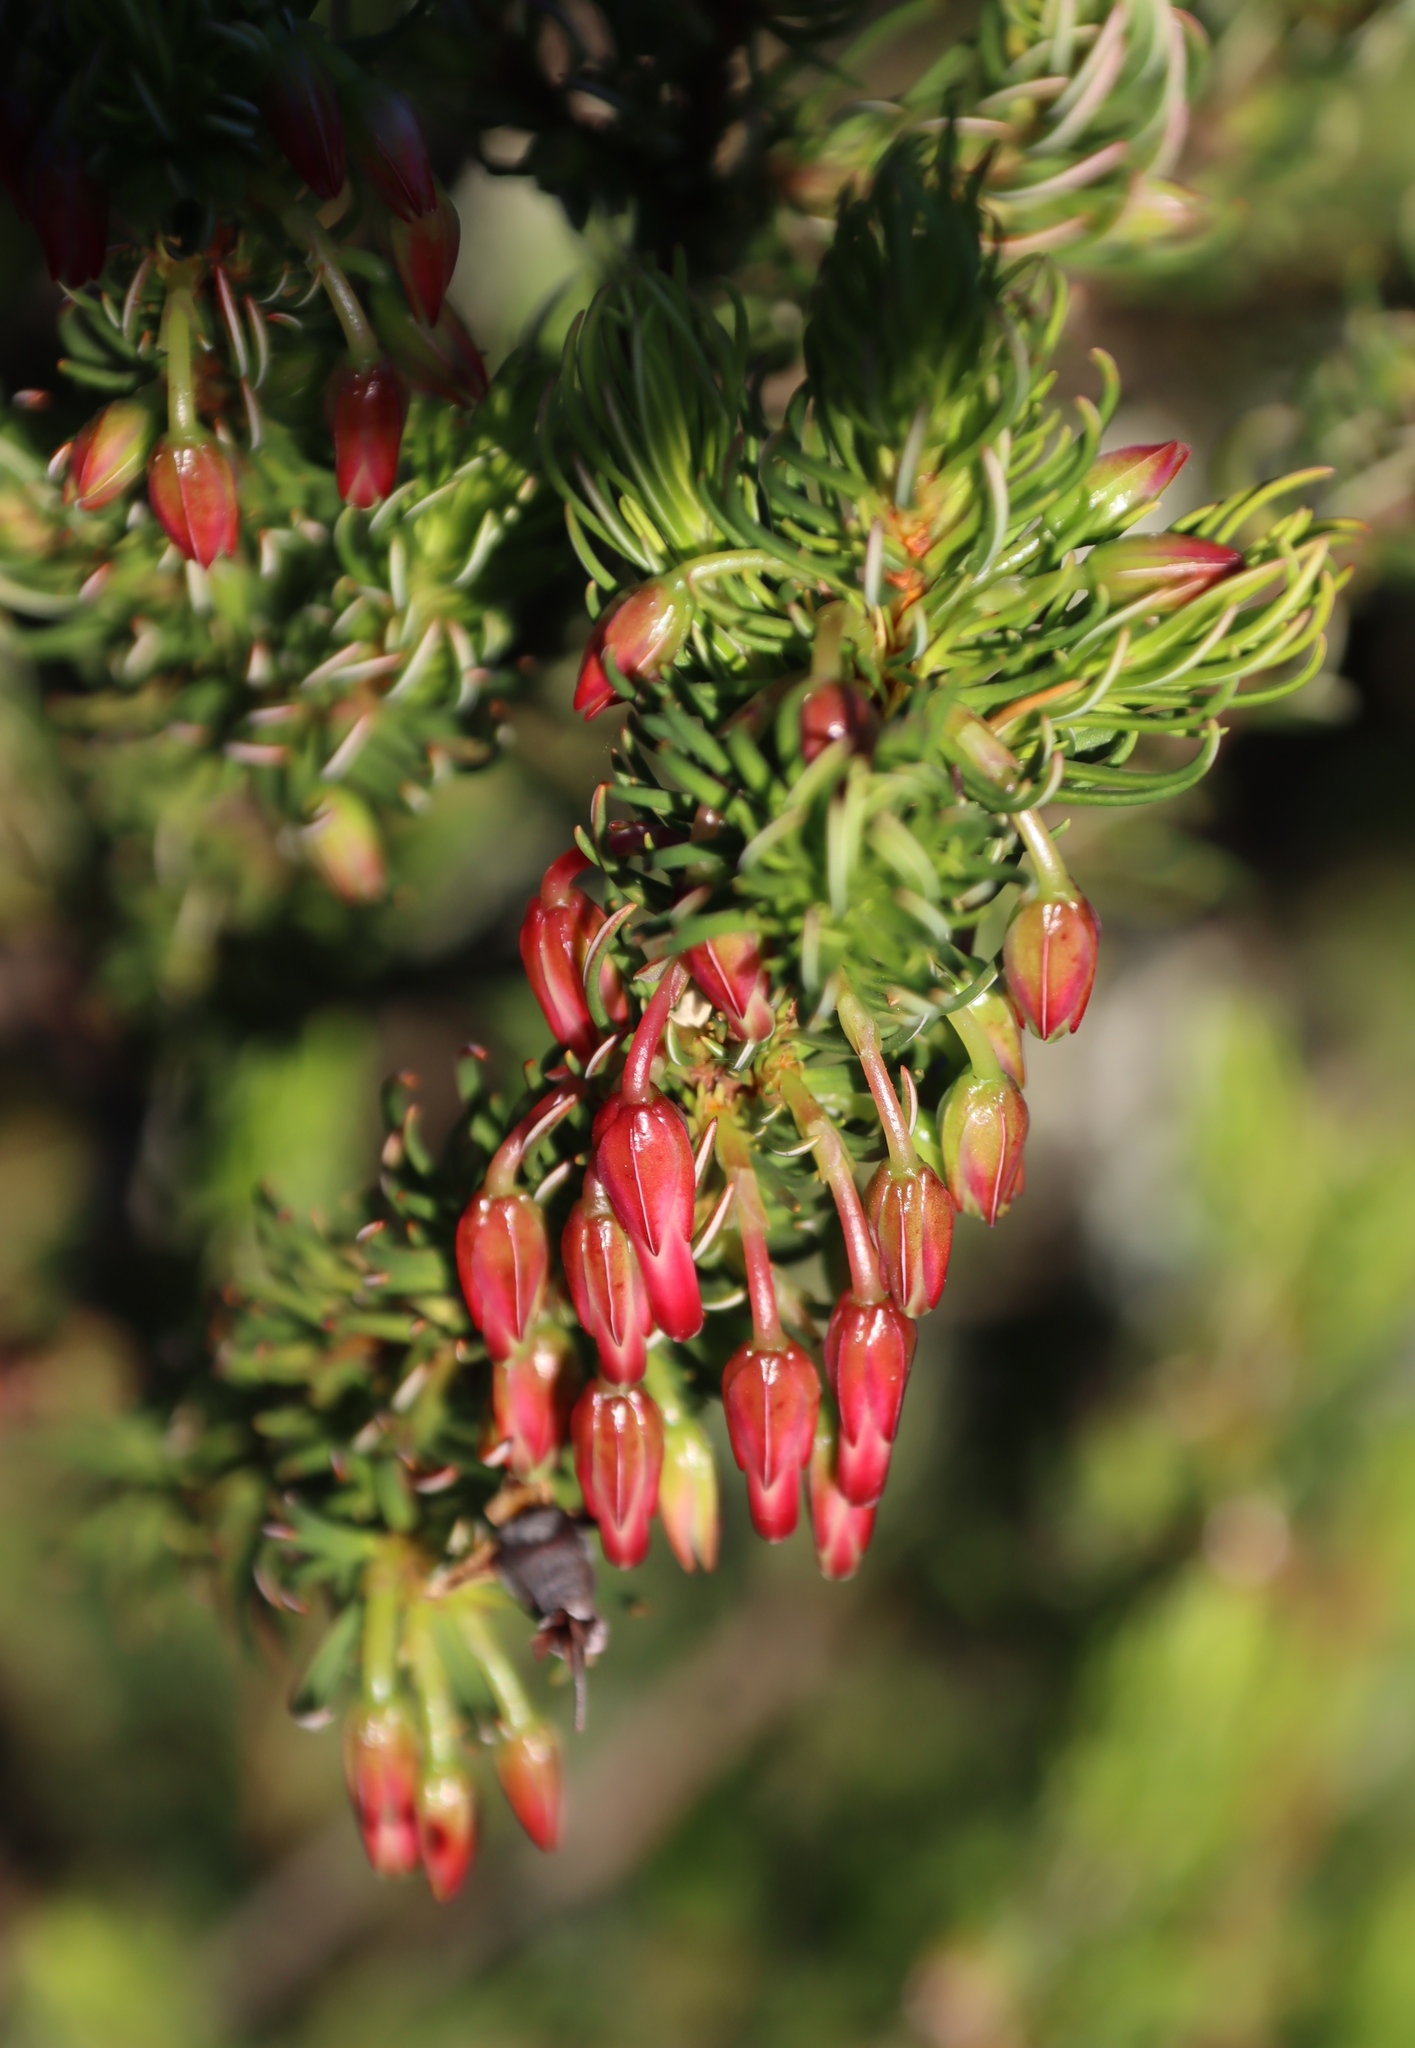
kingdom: Plantae
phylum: Tracheophyta
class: Magnoliopsida
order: Ericales
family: Ericaceae
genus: Erica
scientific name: Erica plukenetii
